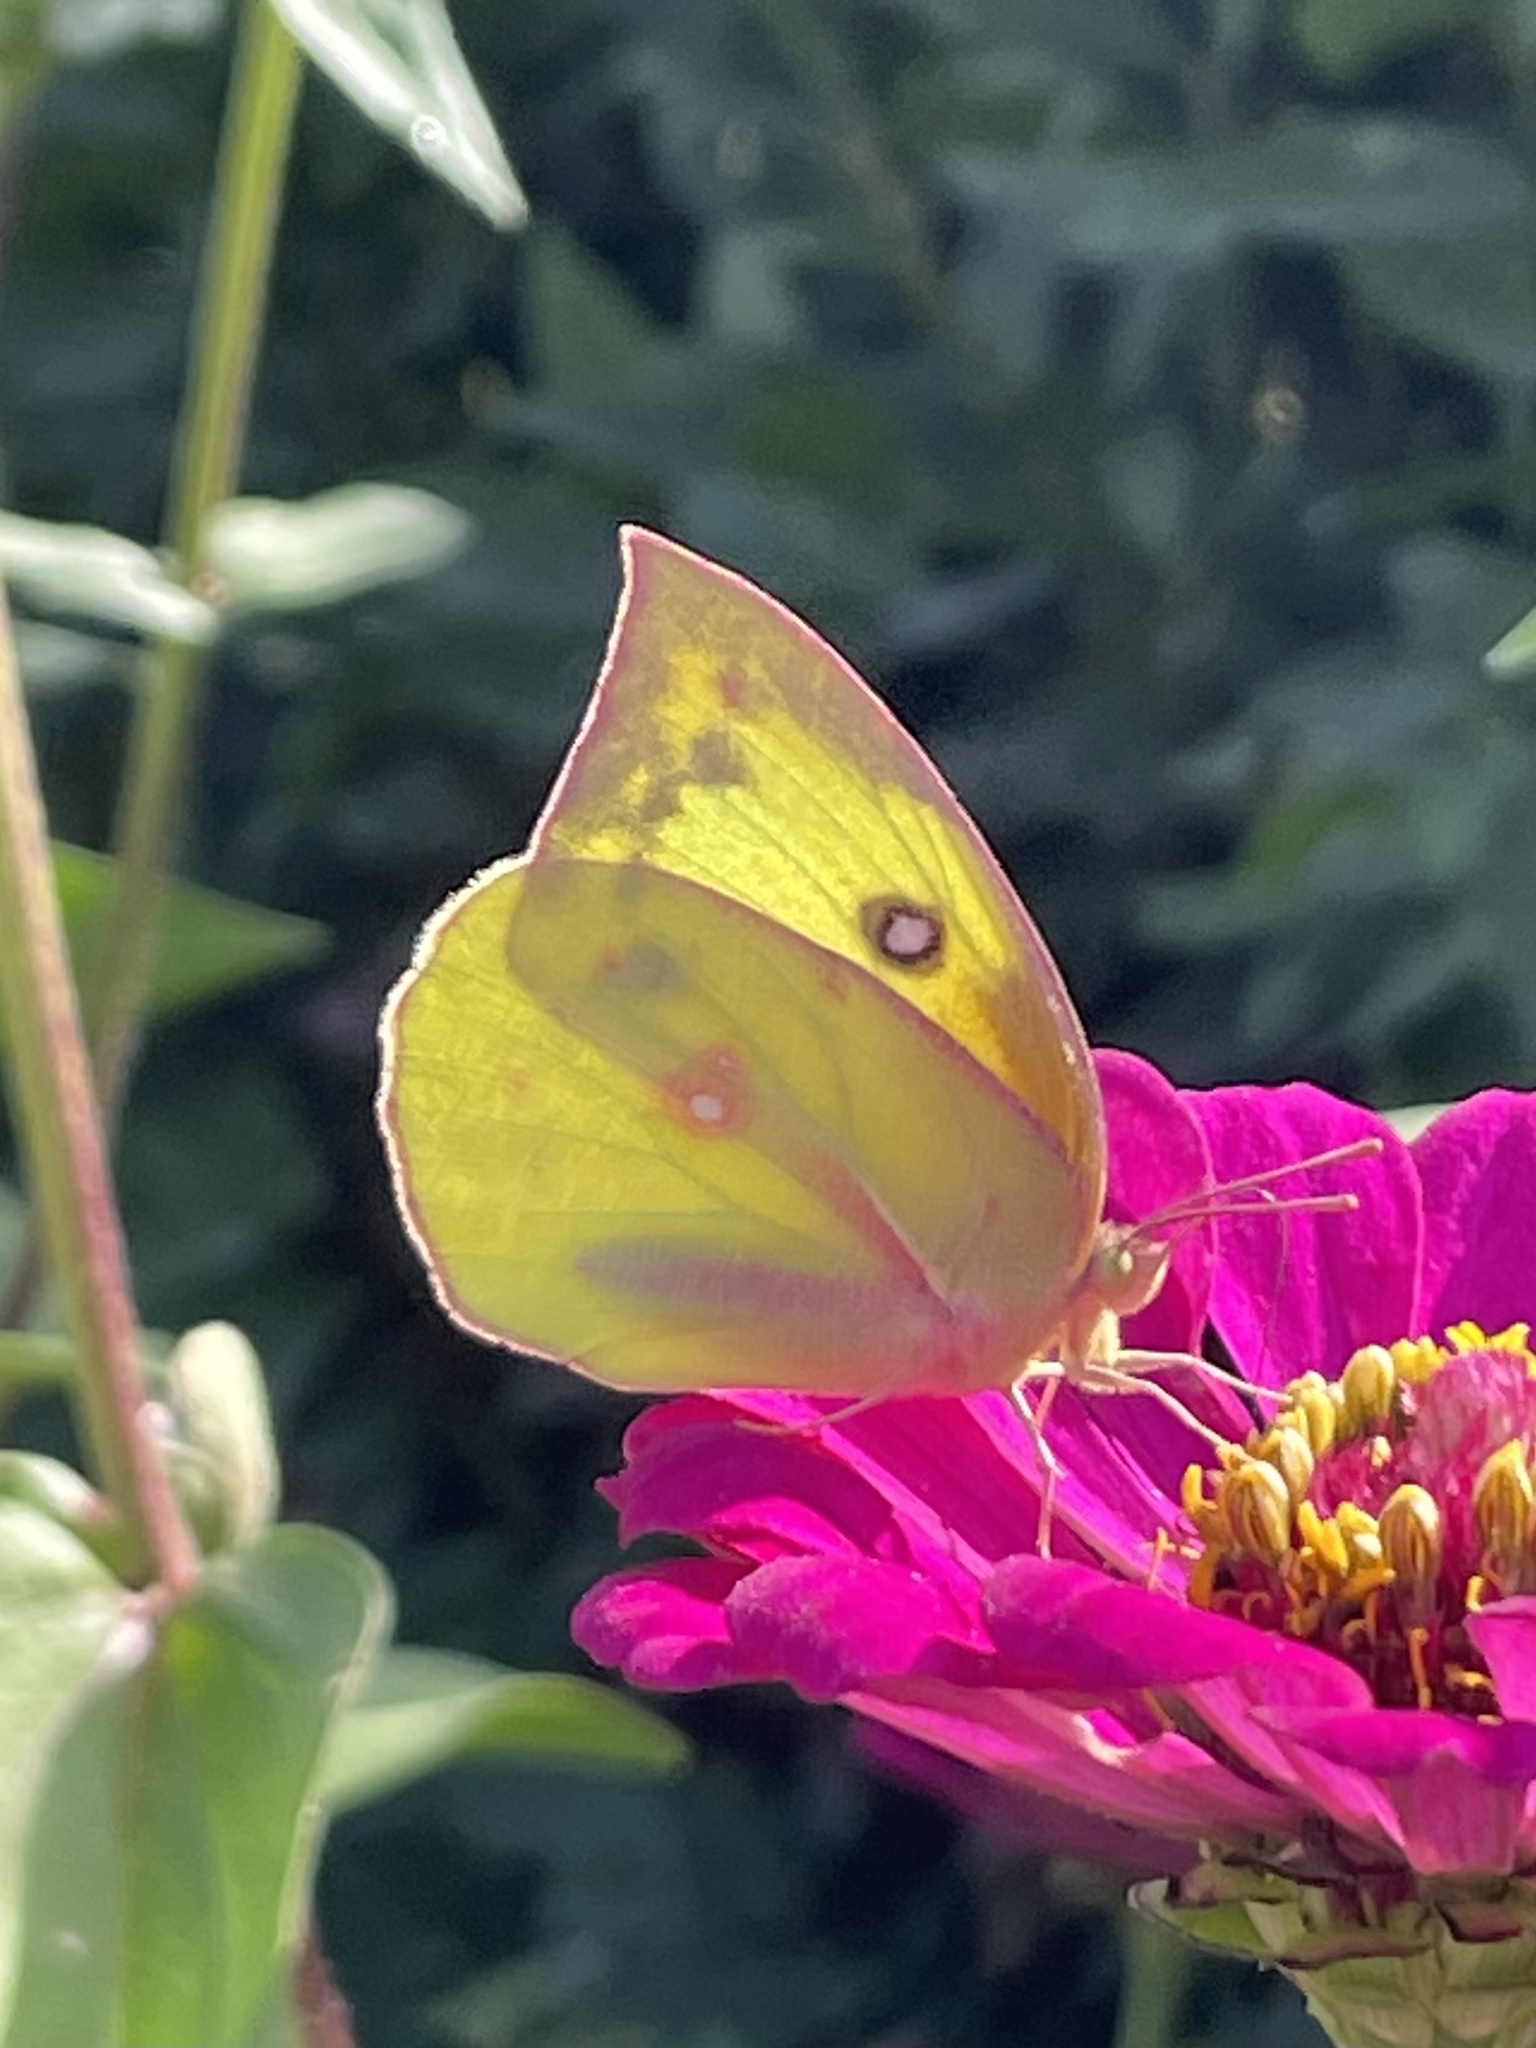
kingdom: Animalia
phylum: Arthropoda
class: Insecta
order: Lepidoptera
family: Pieridae
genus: Zerene
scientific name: Zerene cesonia
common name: Southern dogface
